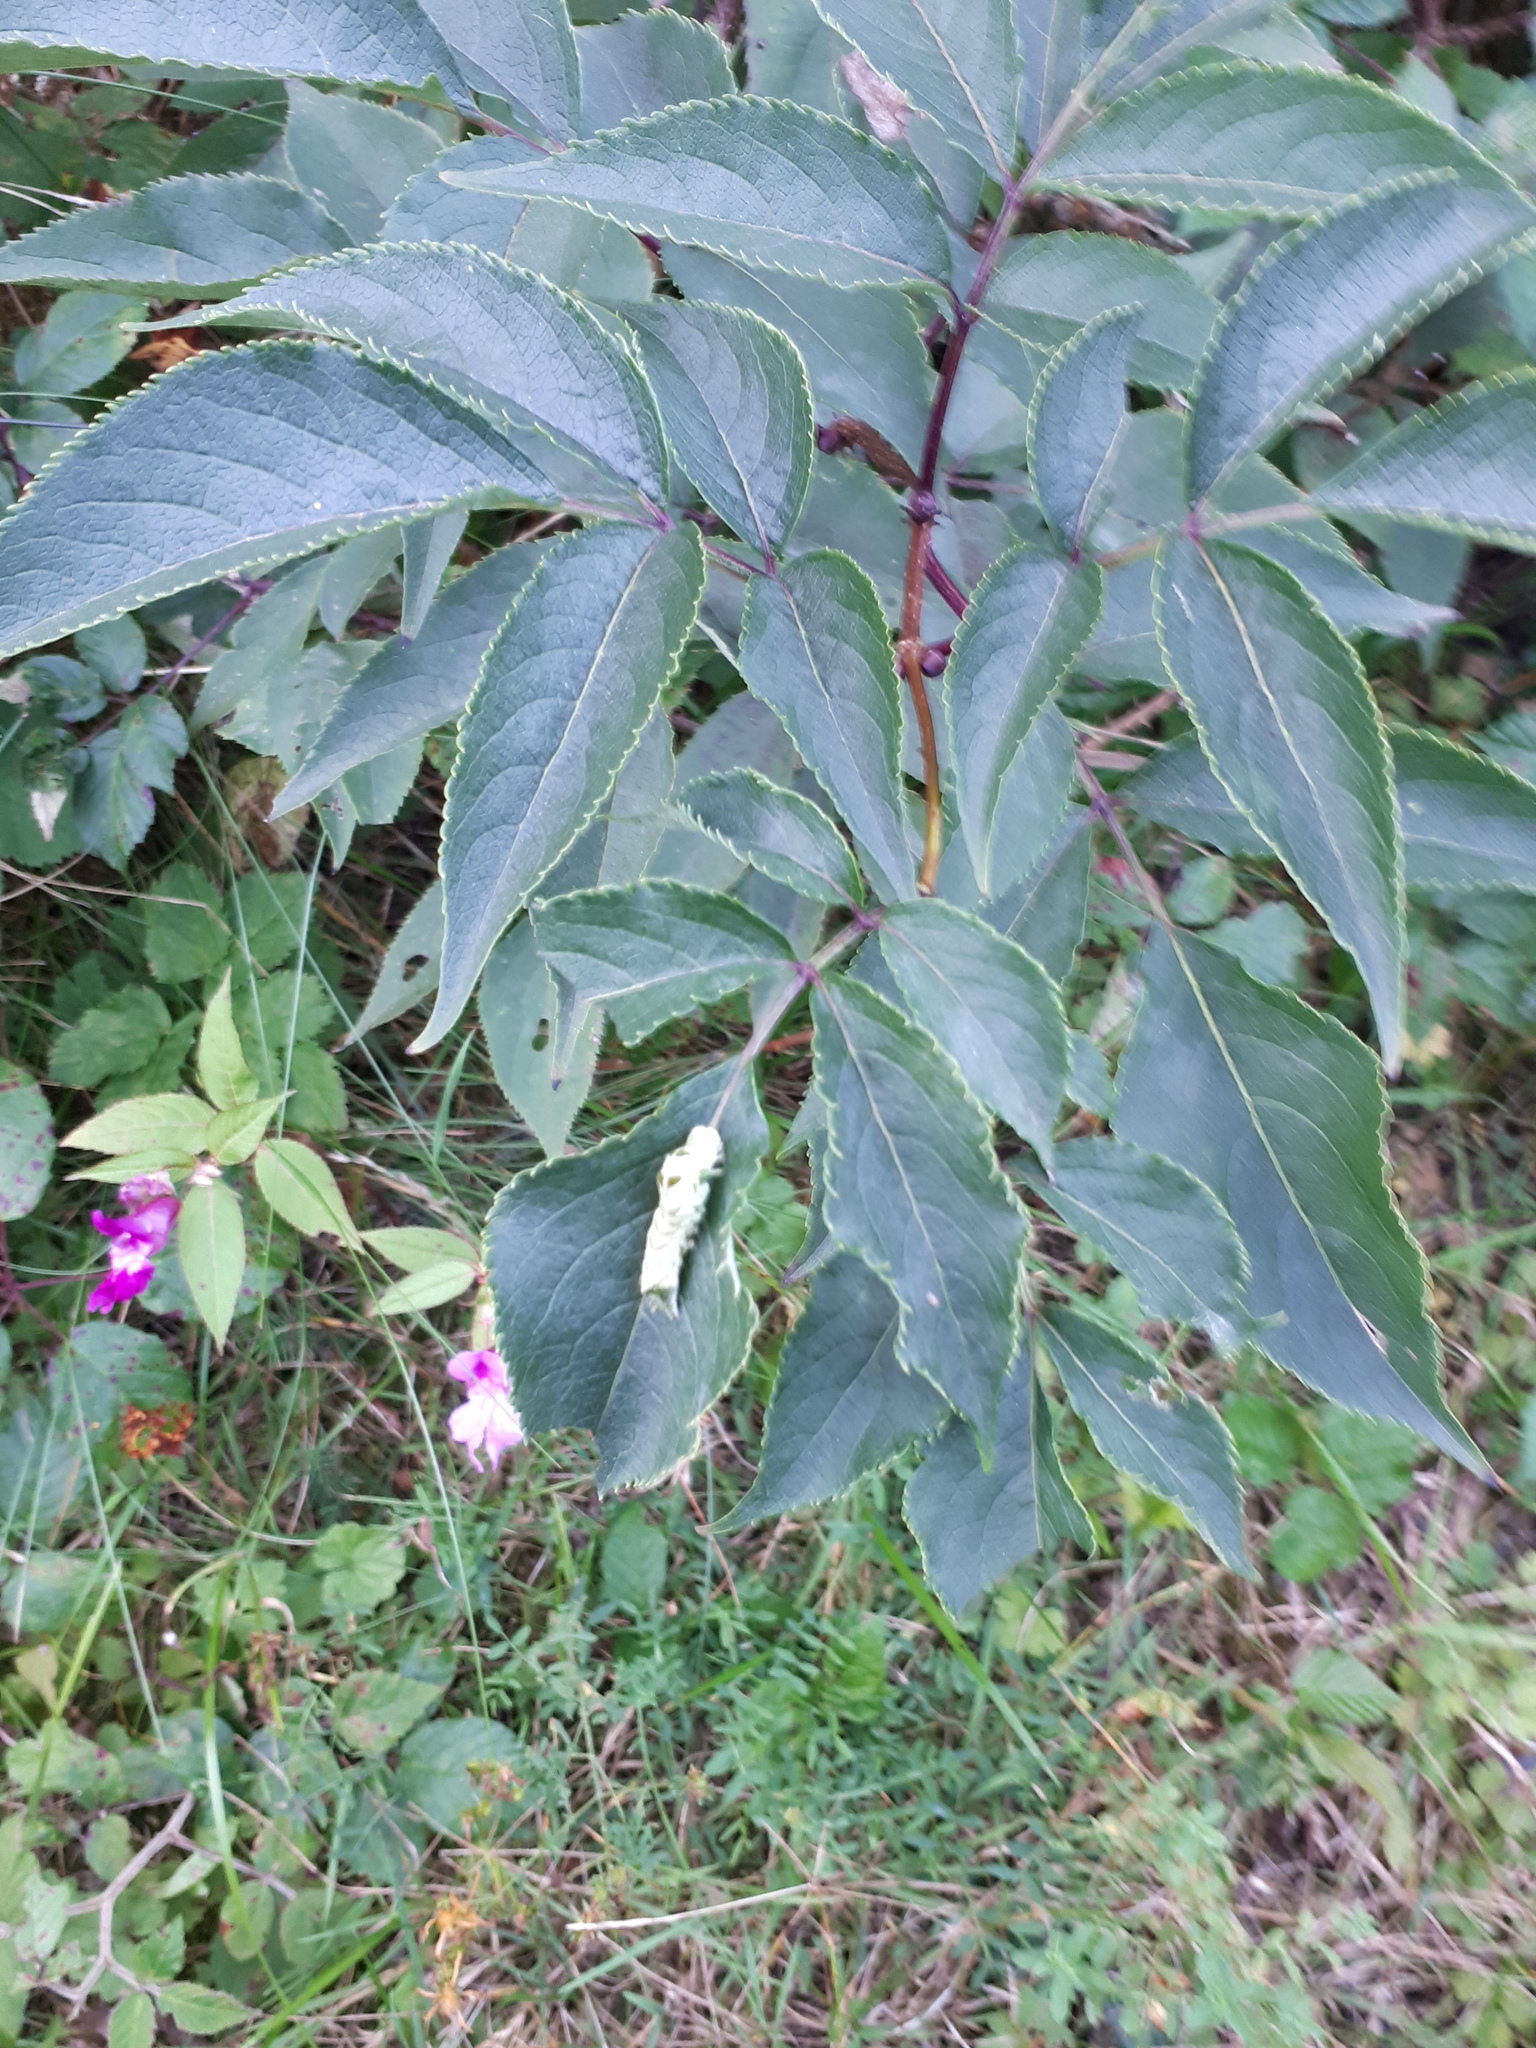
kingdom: Animalia
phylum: Arthropoda
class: Insecta
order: Lepidoptera
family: Noctuidae
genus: Melanchra
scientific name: Melanchra persicariae
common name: Dot moth
